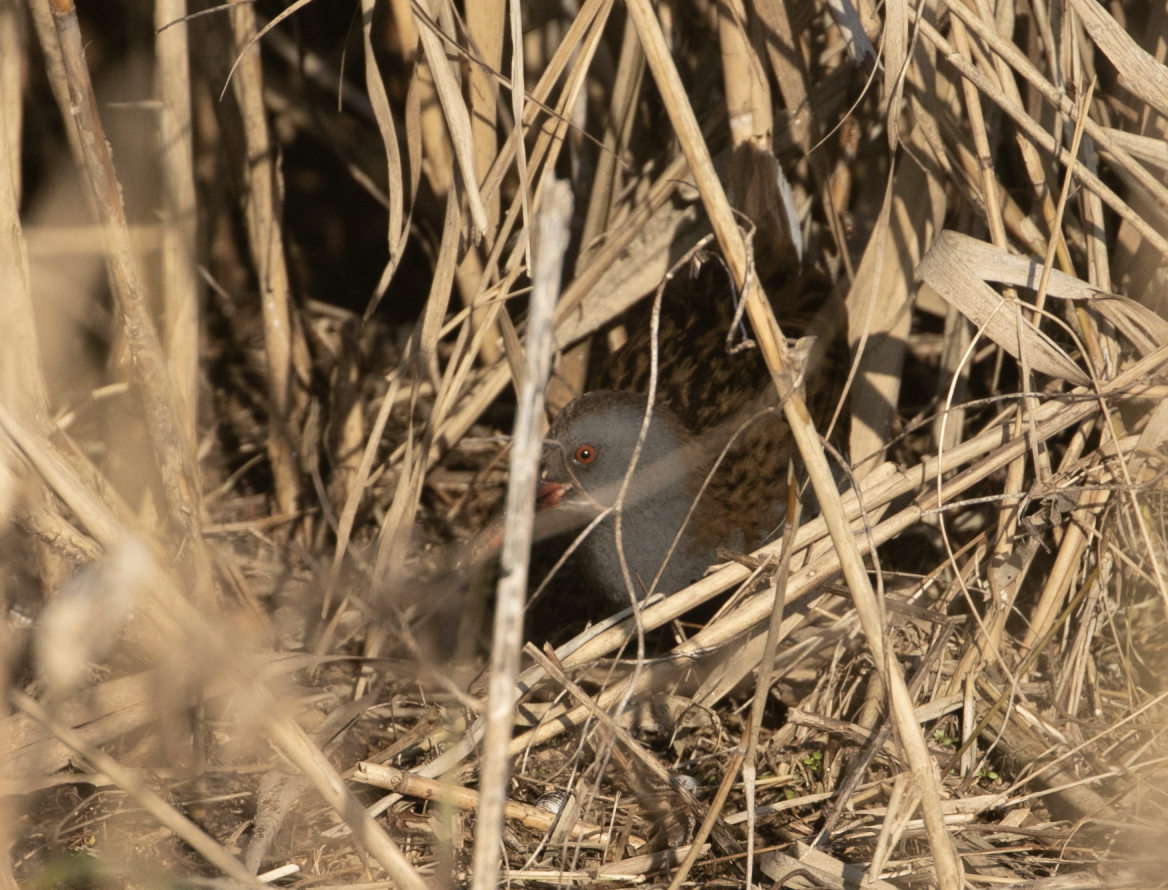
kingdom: Animalia
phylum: Chordata
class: Aves
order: Gruiformes
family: Rallidae
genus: Rallus
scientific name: Rallus aquaticus
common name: Water rail
